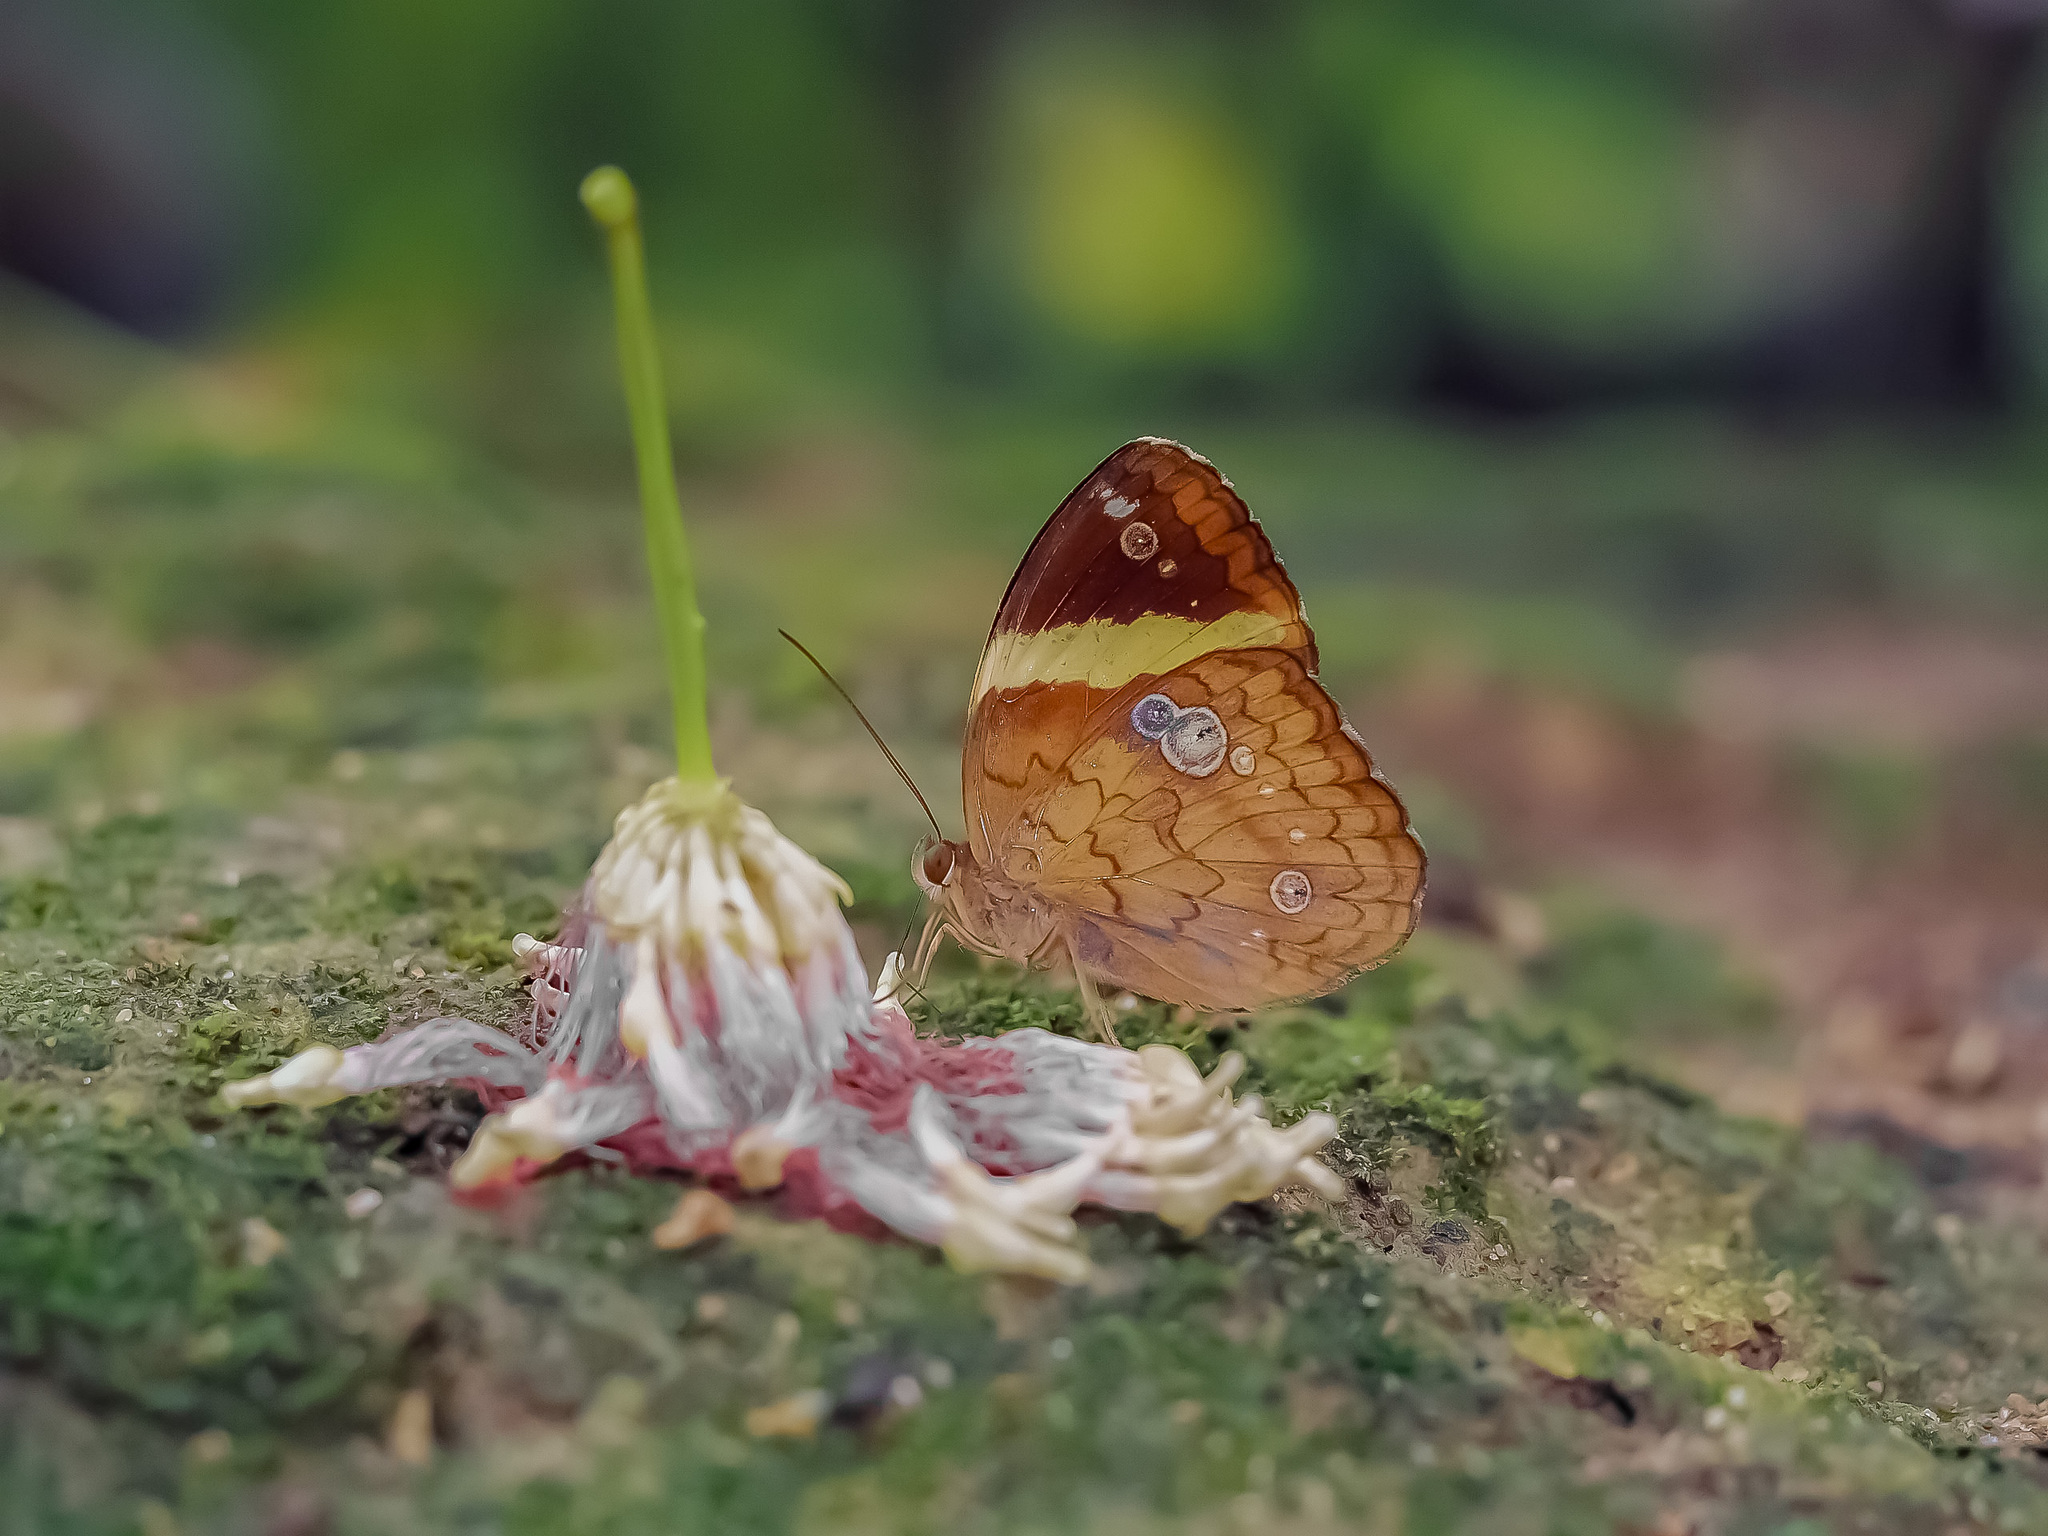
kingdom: Animalia
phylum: Arthropoda
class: Insecta
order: Lepidoptera
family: Nymphalidae
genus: Xanthotaenia
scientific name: Xanthotaenia busiris
